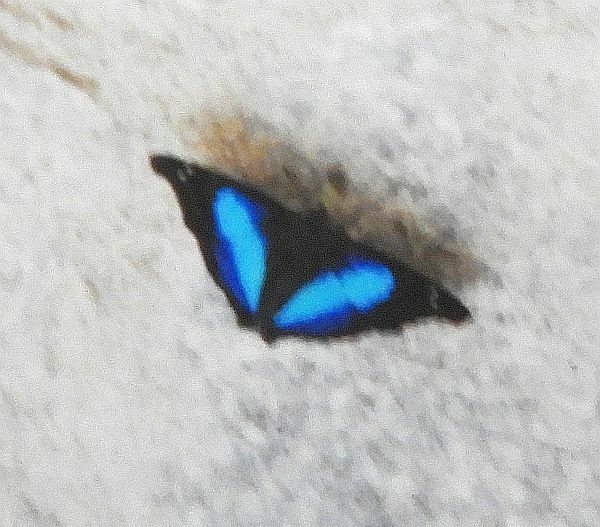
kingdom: Animalia
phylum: Arthropoda
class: Insecta
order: Lepidoptera
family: Nymphalidae
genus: Doxocopa
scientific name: Doxocopa laurentia
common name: Turquoise emperor
